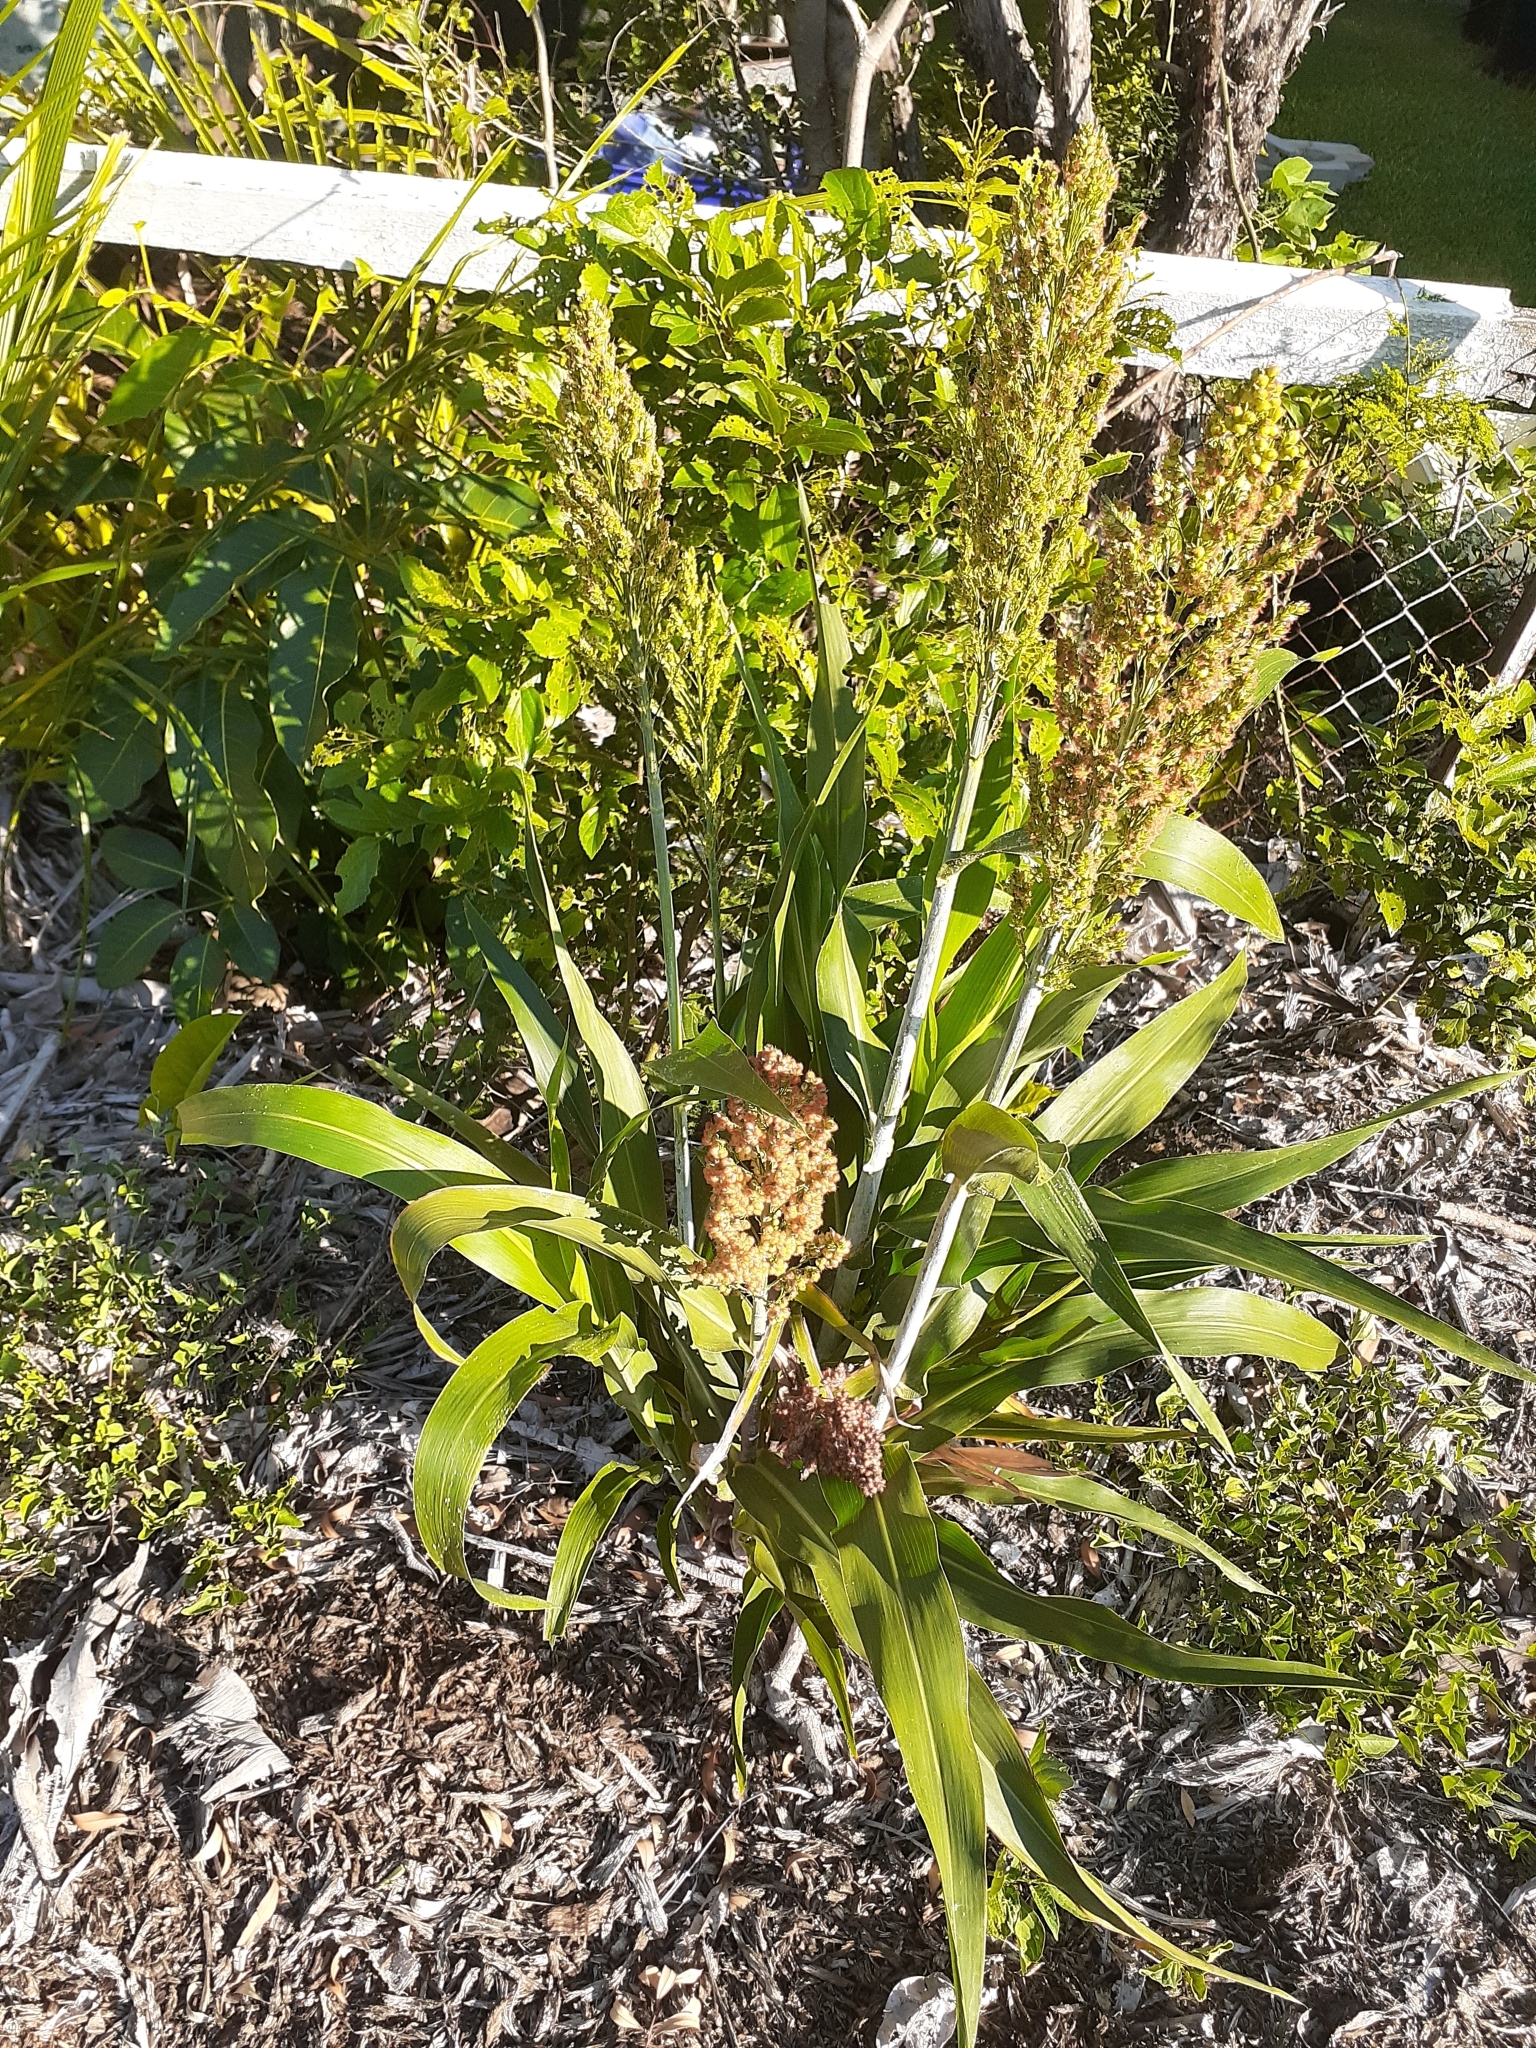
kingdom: Plantae
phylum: Tracheophyta
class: Liliopsida
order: Poales
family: Poaceae
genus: Sorghum
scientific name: Sorghum bicolor
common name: Sorghum
